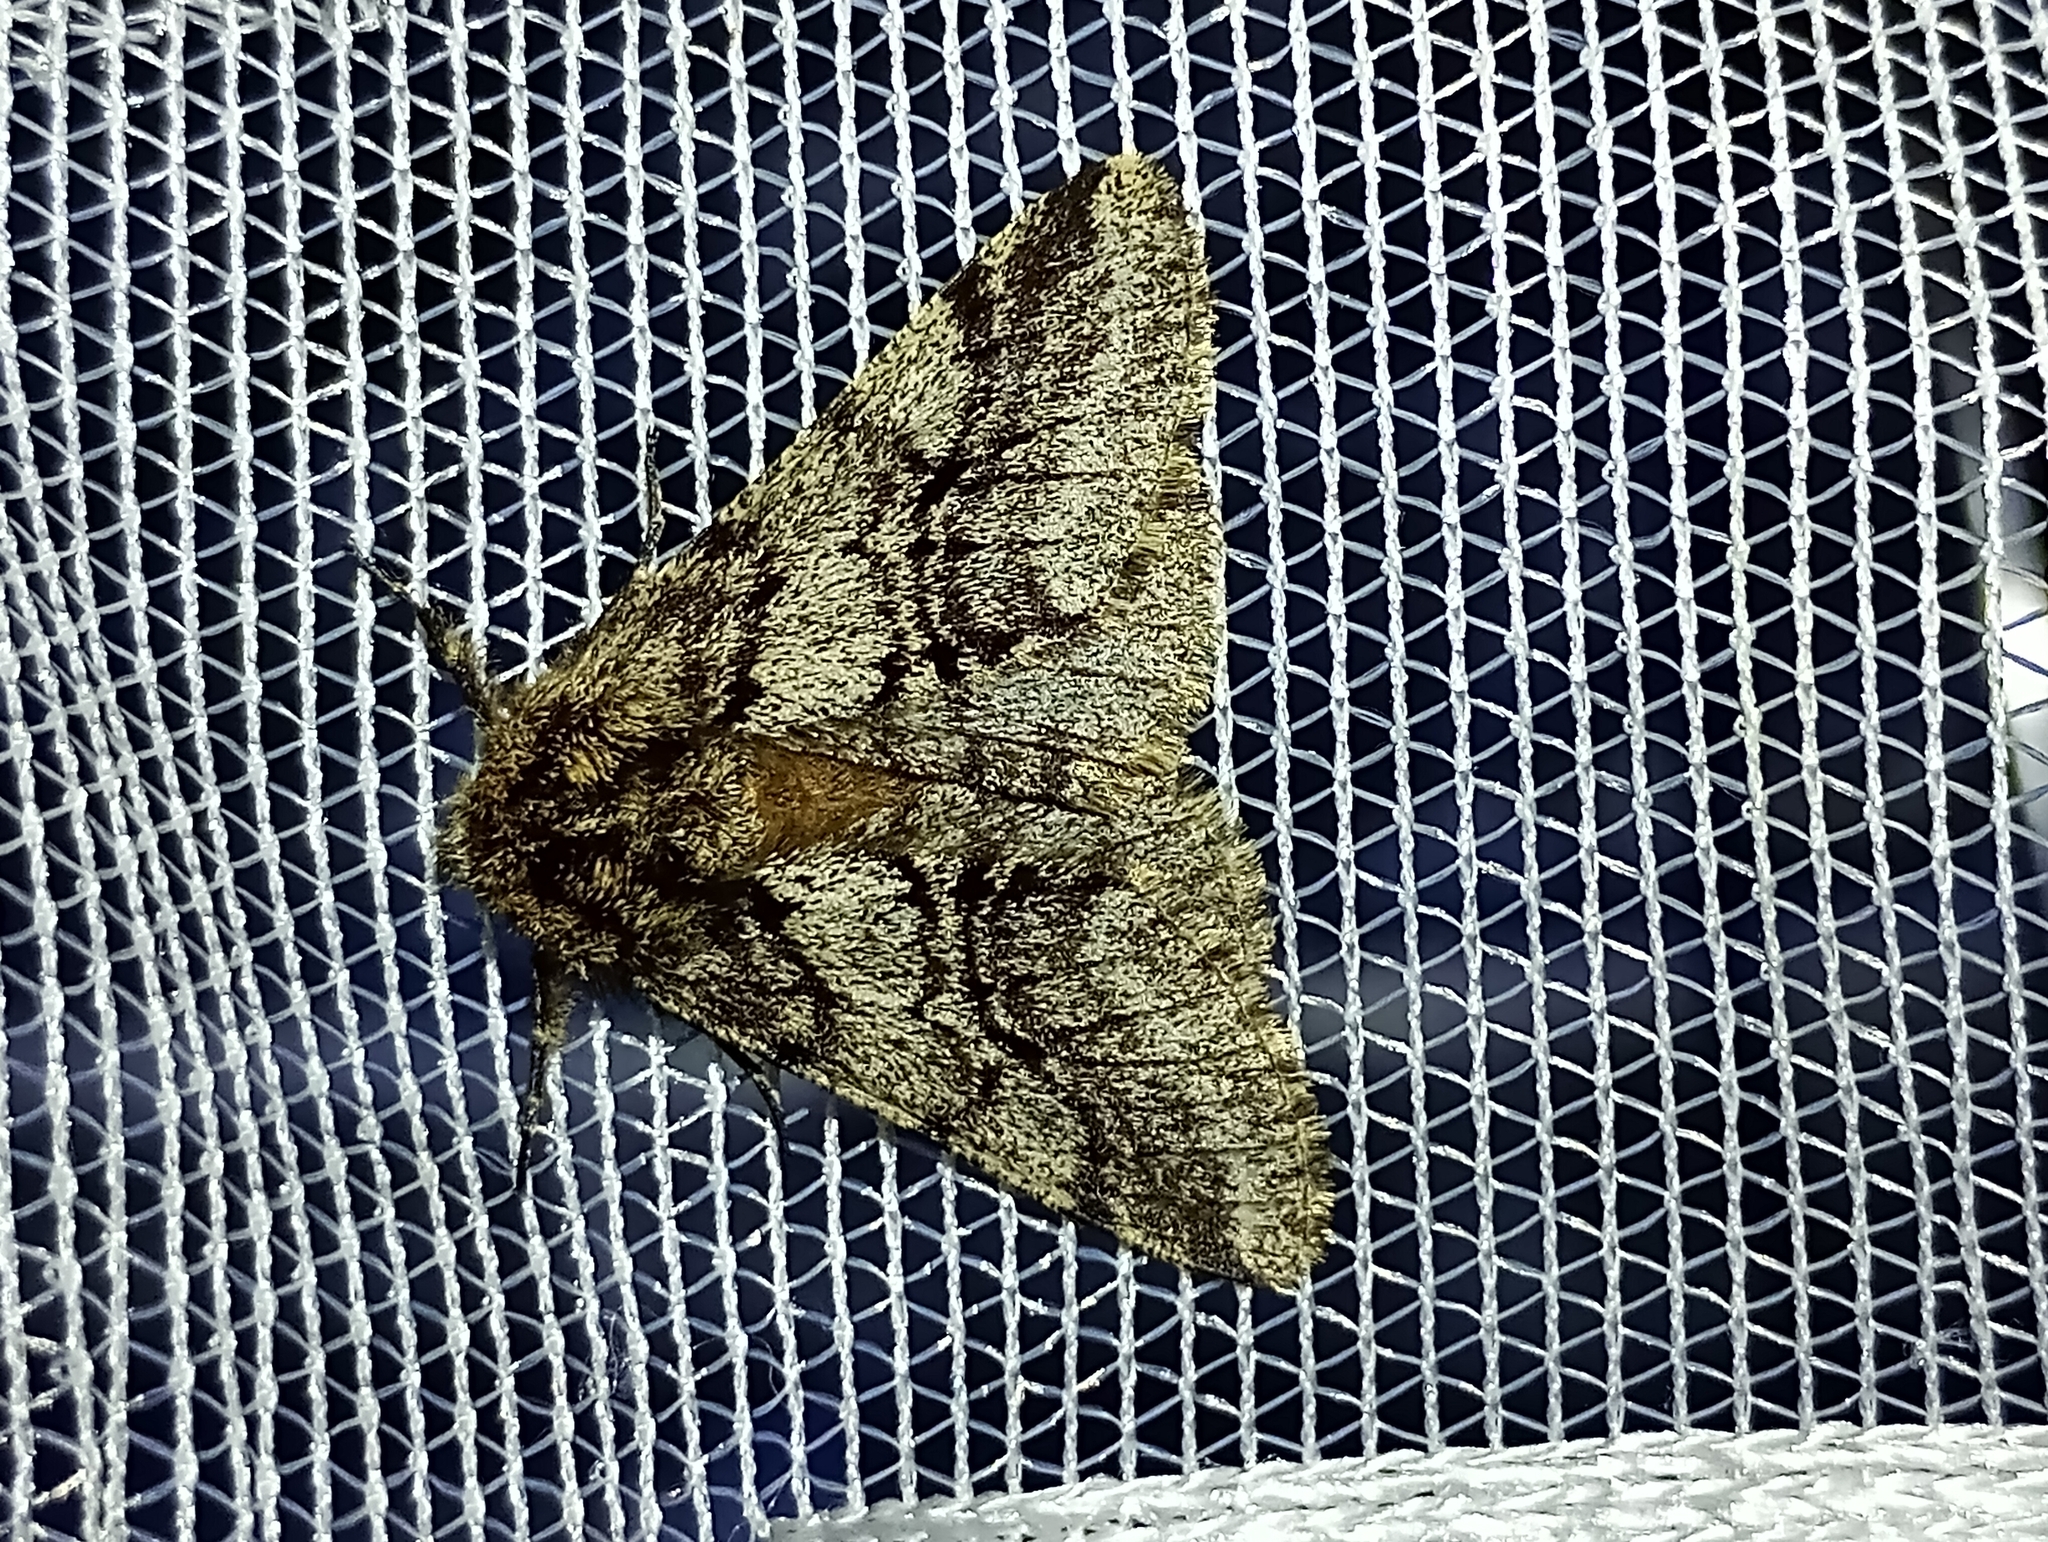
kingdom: Animalia
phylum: Arthropoda
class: Insecta
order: Lepidoptera
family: Geometridae
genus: Lycia
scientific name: Lycia hirtaria
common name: Brindled beauty
